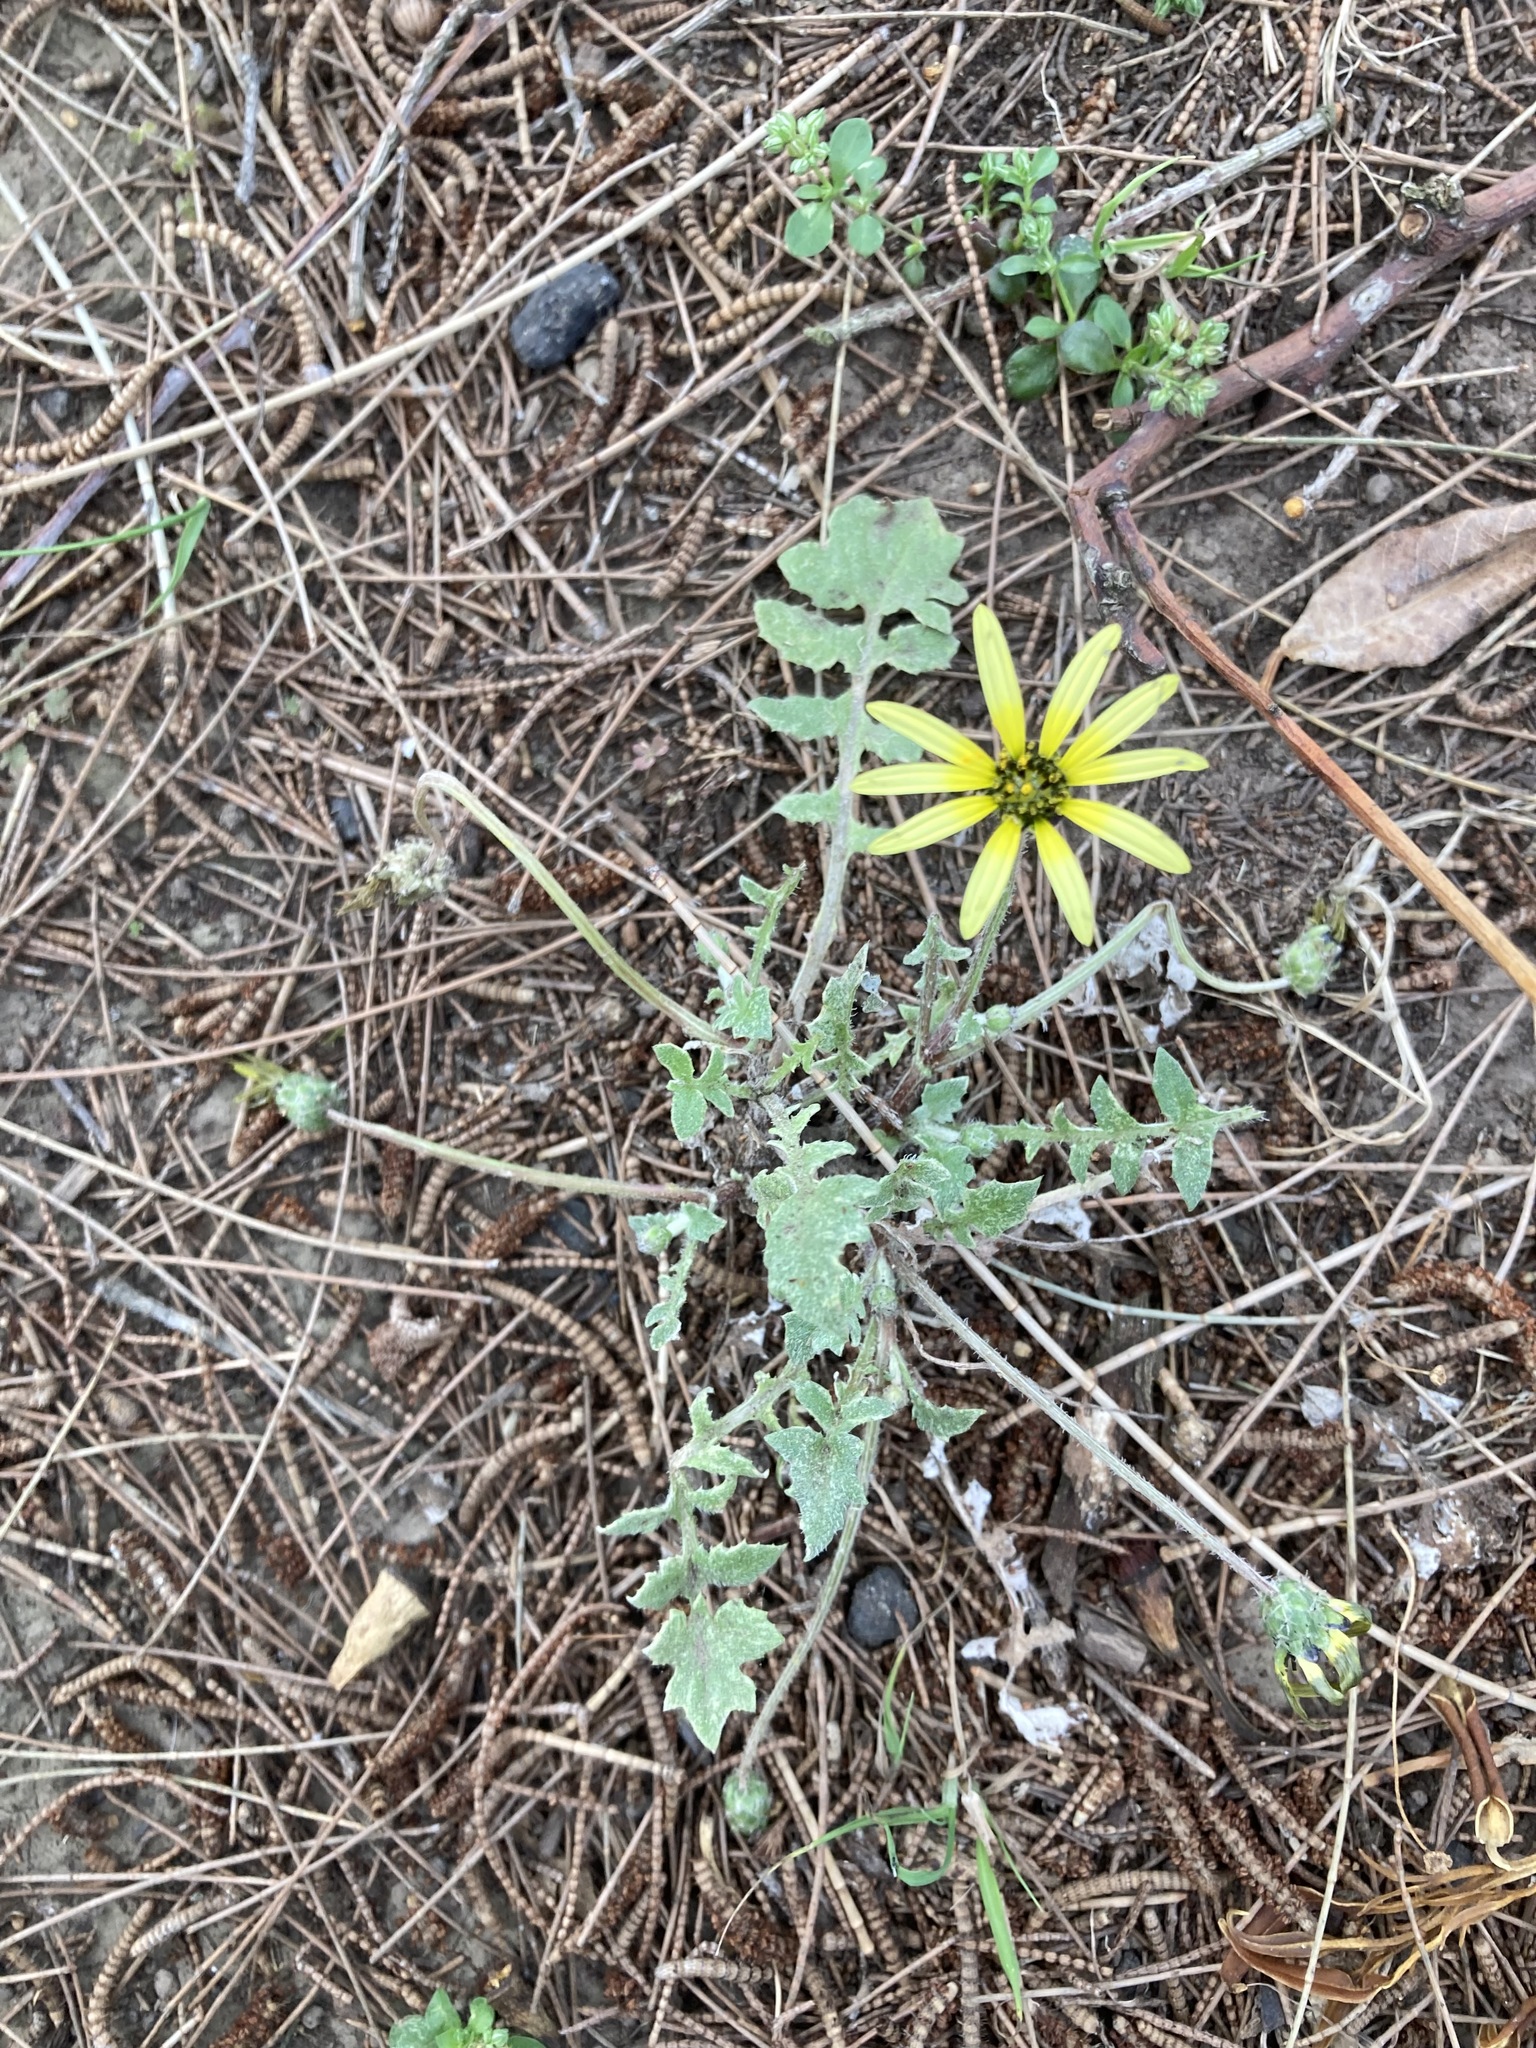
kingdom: Plantae
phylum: Tracheophyta
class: Magnoliopsida
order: Asterales
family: Asteraceae
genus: Arctotheca
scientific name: Arctotheca calendula
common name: Capeweed
